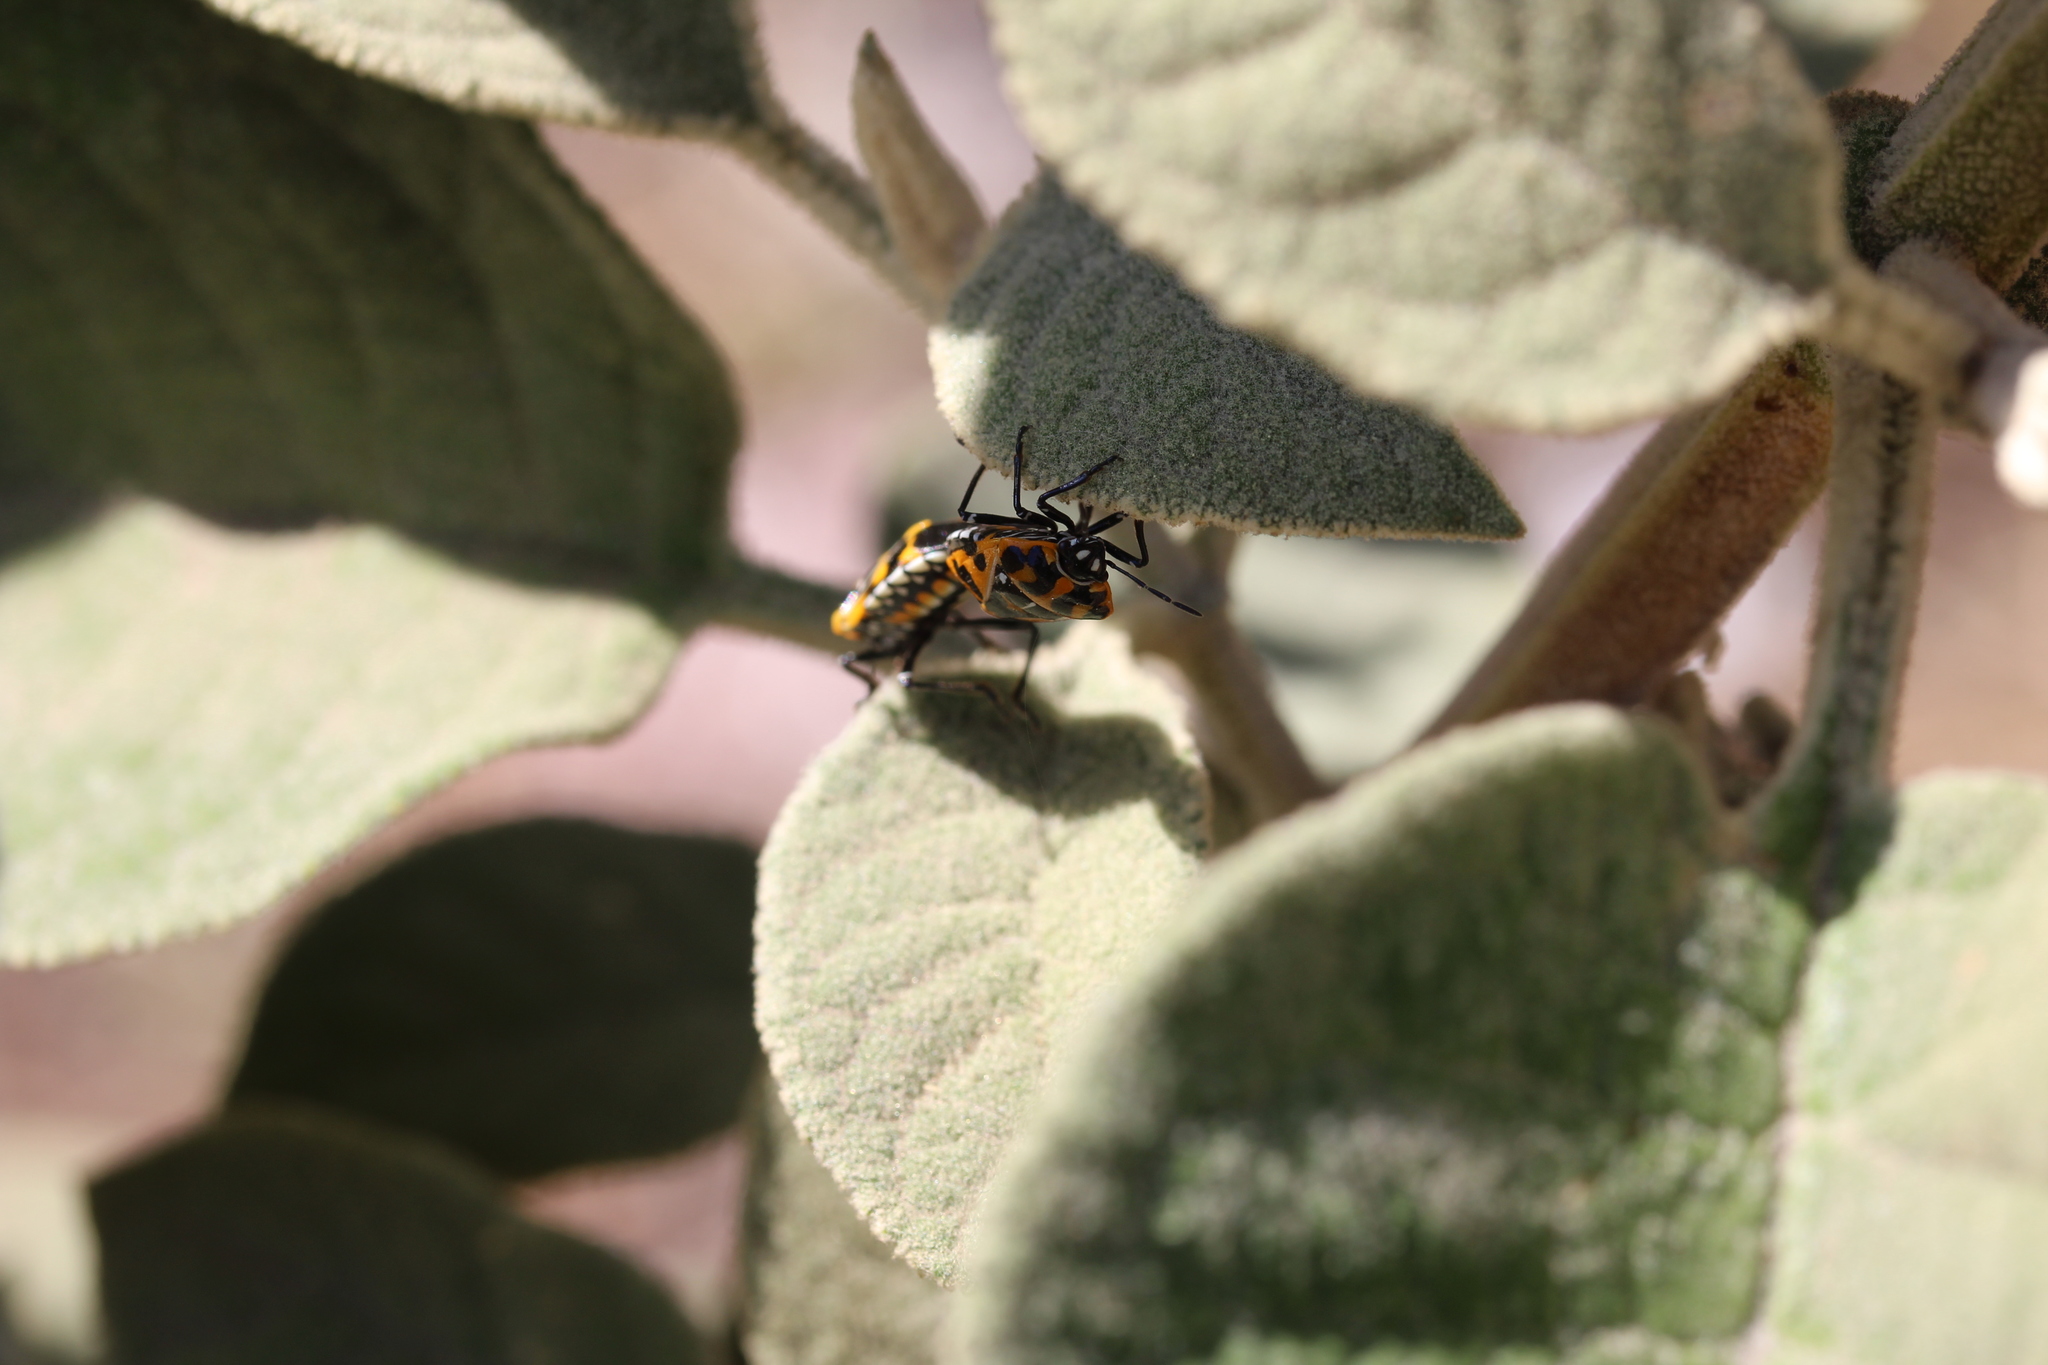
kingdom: Animalia
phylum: Arthropoda
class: Insecta
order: Hemiptera
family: Pentatomidae
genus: Murgantia
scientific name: Murgantia histrionica
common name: Harlequin bug
